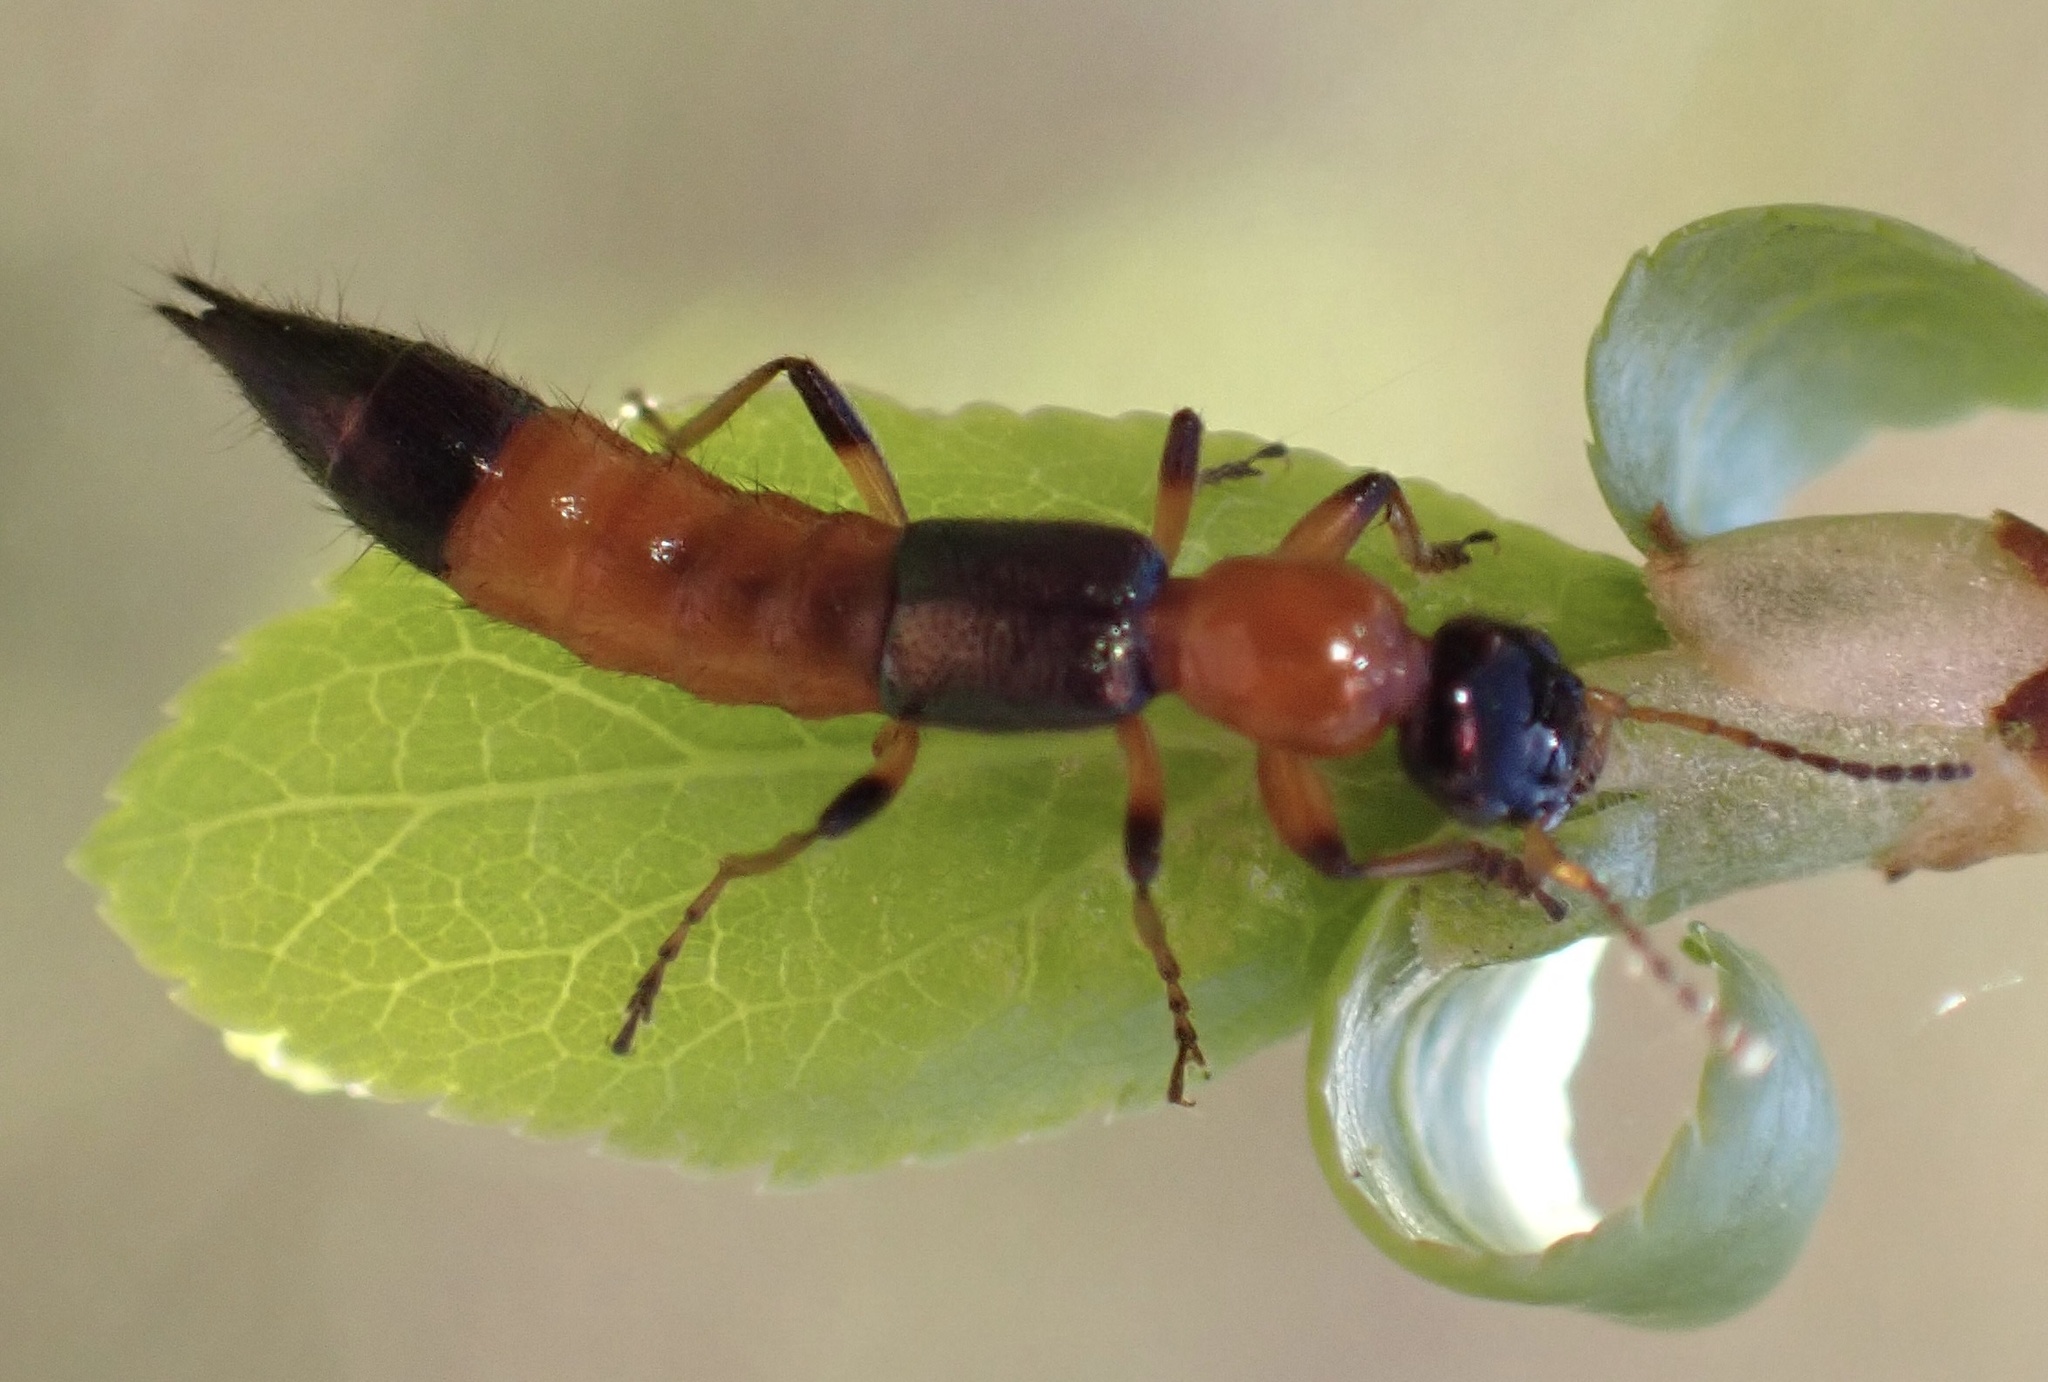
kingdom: Animalia
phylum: Arthropoda
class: Insecta
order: Coleoptera
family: Staphylinidae
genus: Paederus
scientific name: Paederus fuscipes
